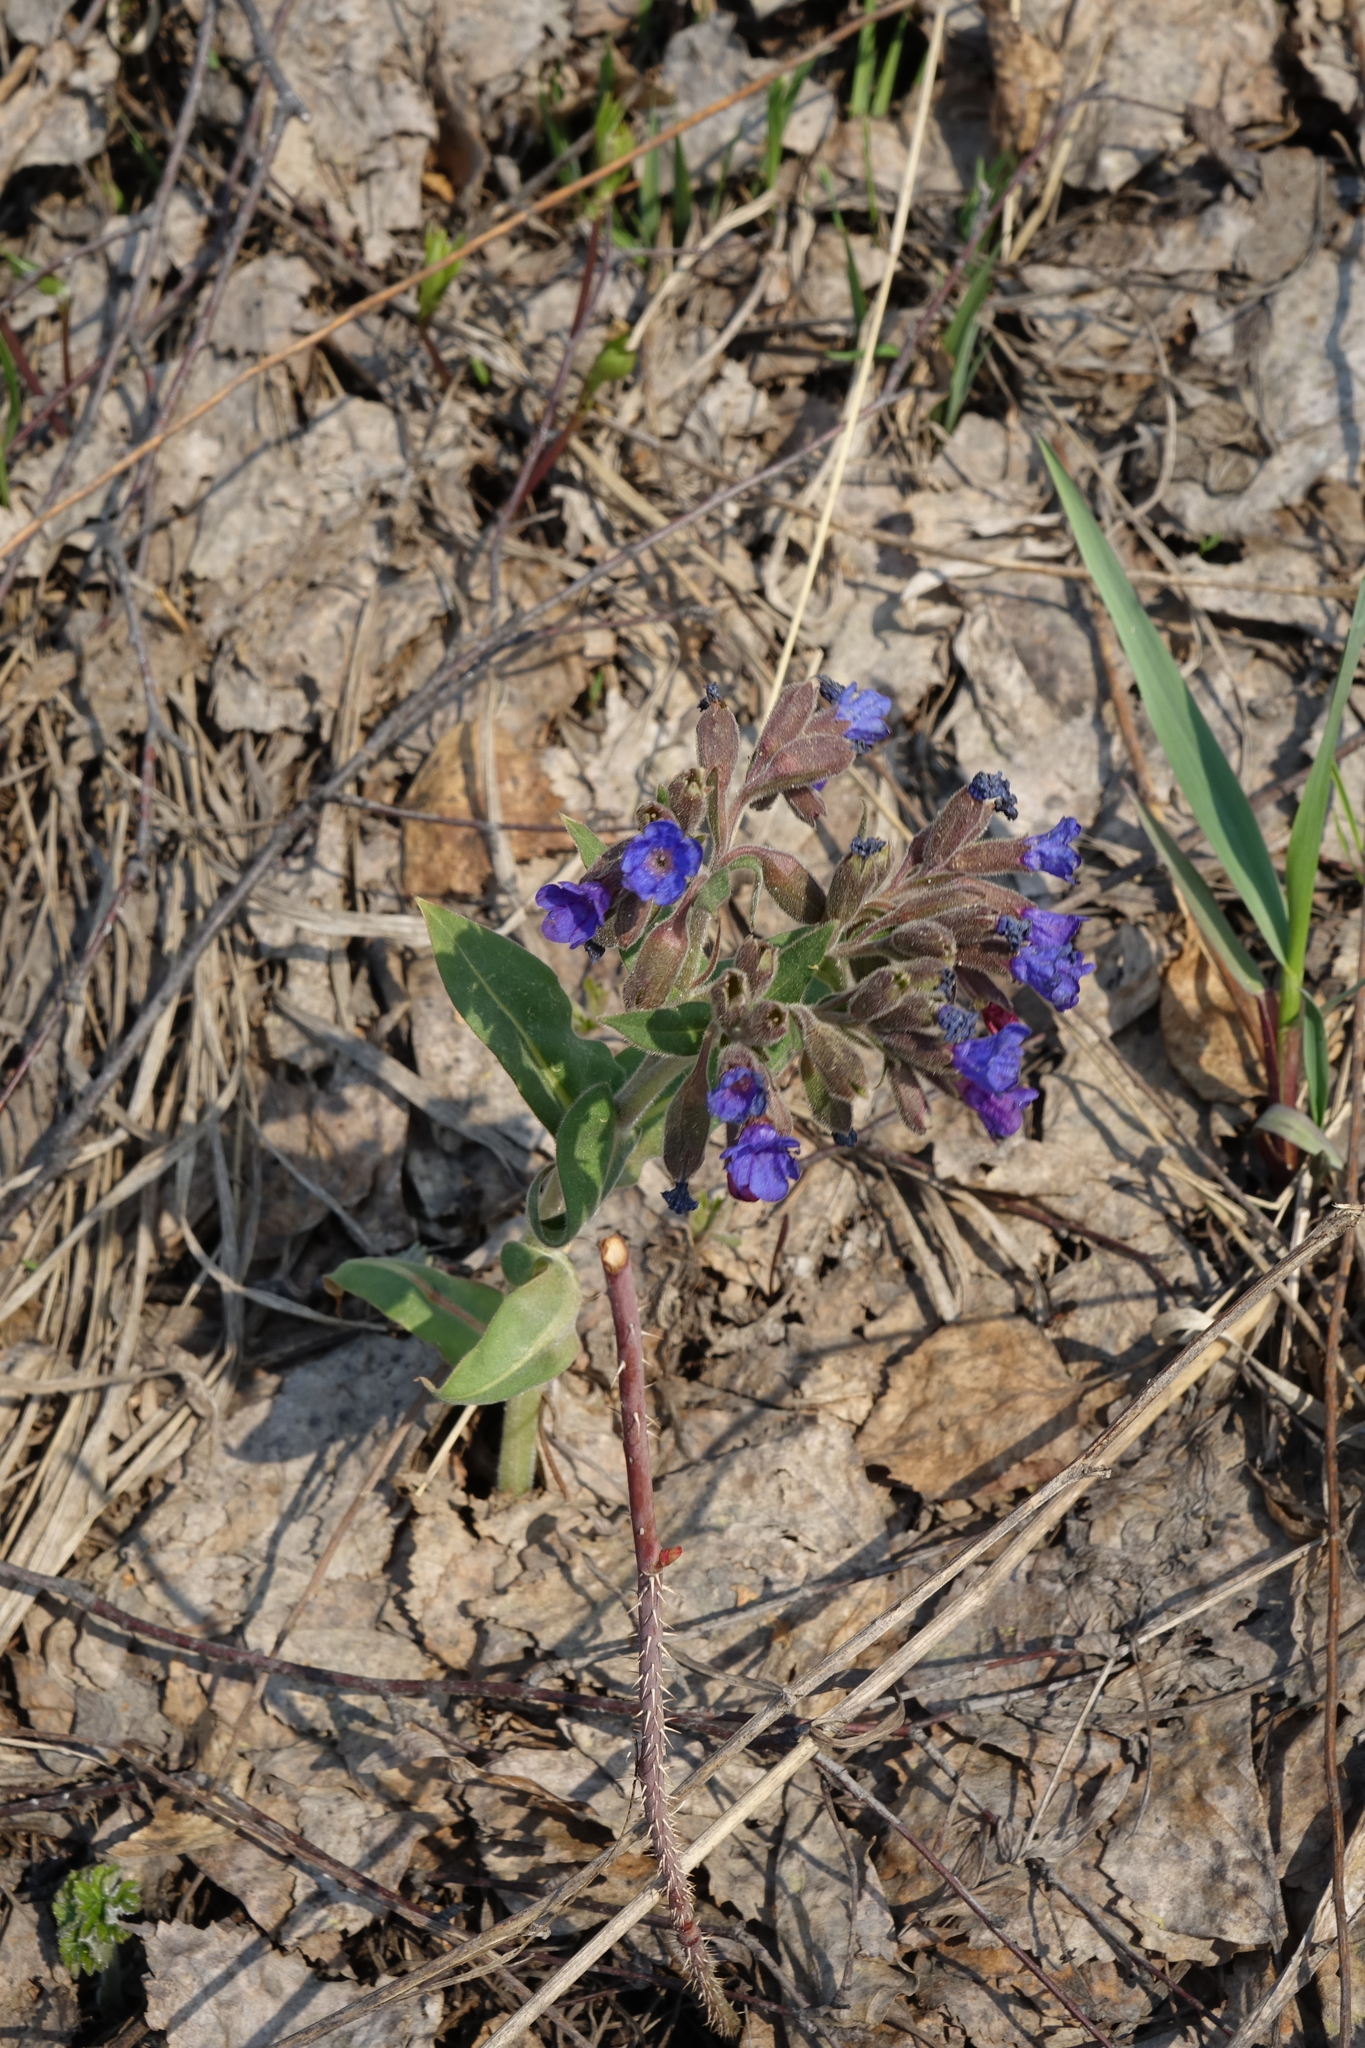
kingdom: Plantae
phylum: Tracheophyta
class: Magnoliopsida
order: Boraginales
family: Boraginaceae
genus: Pulmonaria
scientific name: Pulmonaria mollis
